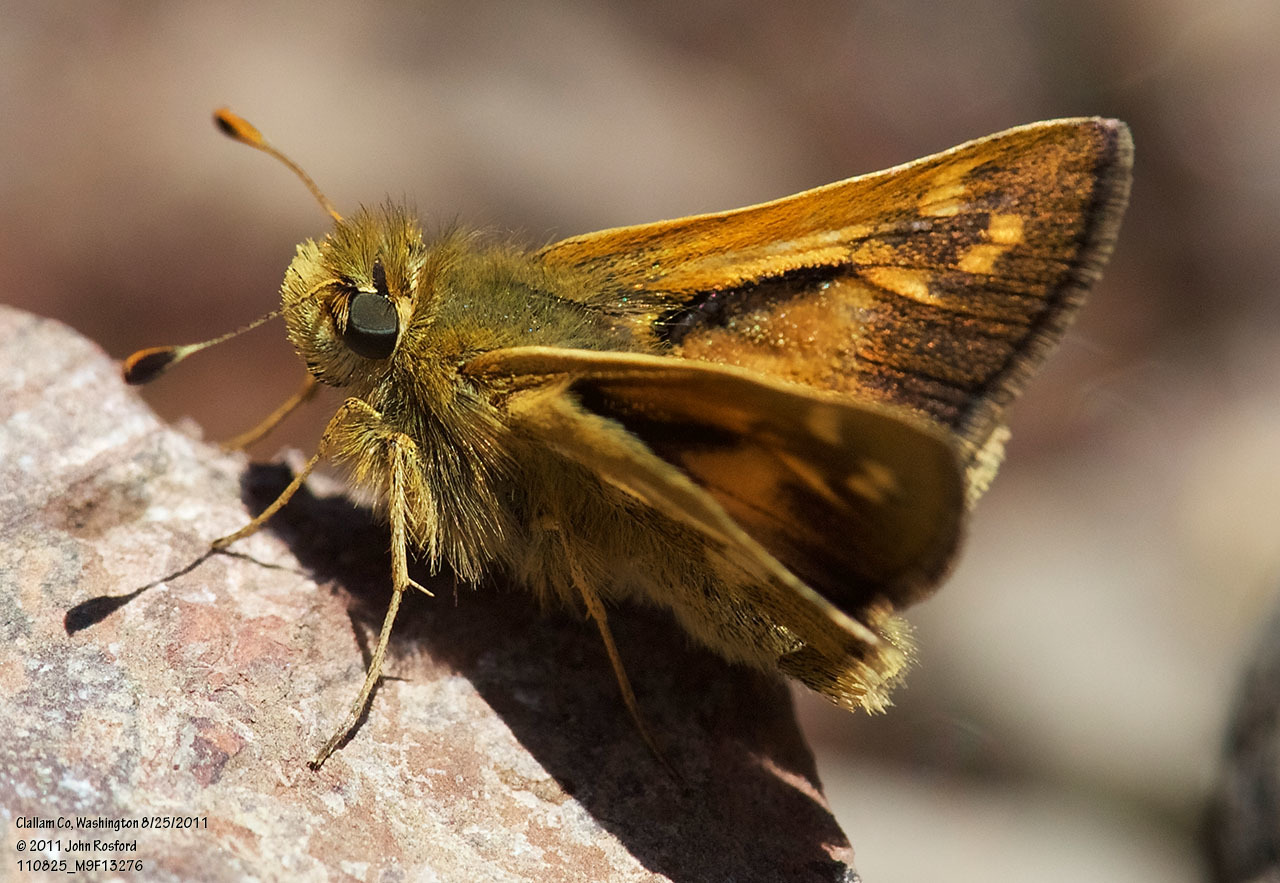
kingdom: Animalia
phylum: Arthropoda
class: Insecta
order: Lepidoptera
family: Hesperiidae
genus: Ochlodes
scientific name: Ochlodes sylvanoides
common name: Woodland skipper
